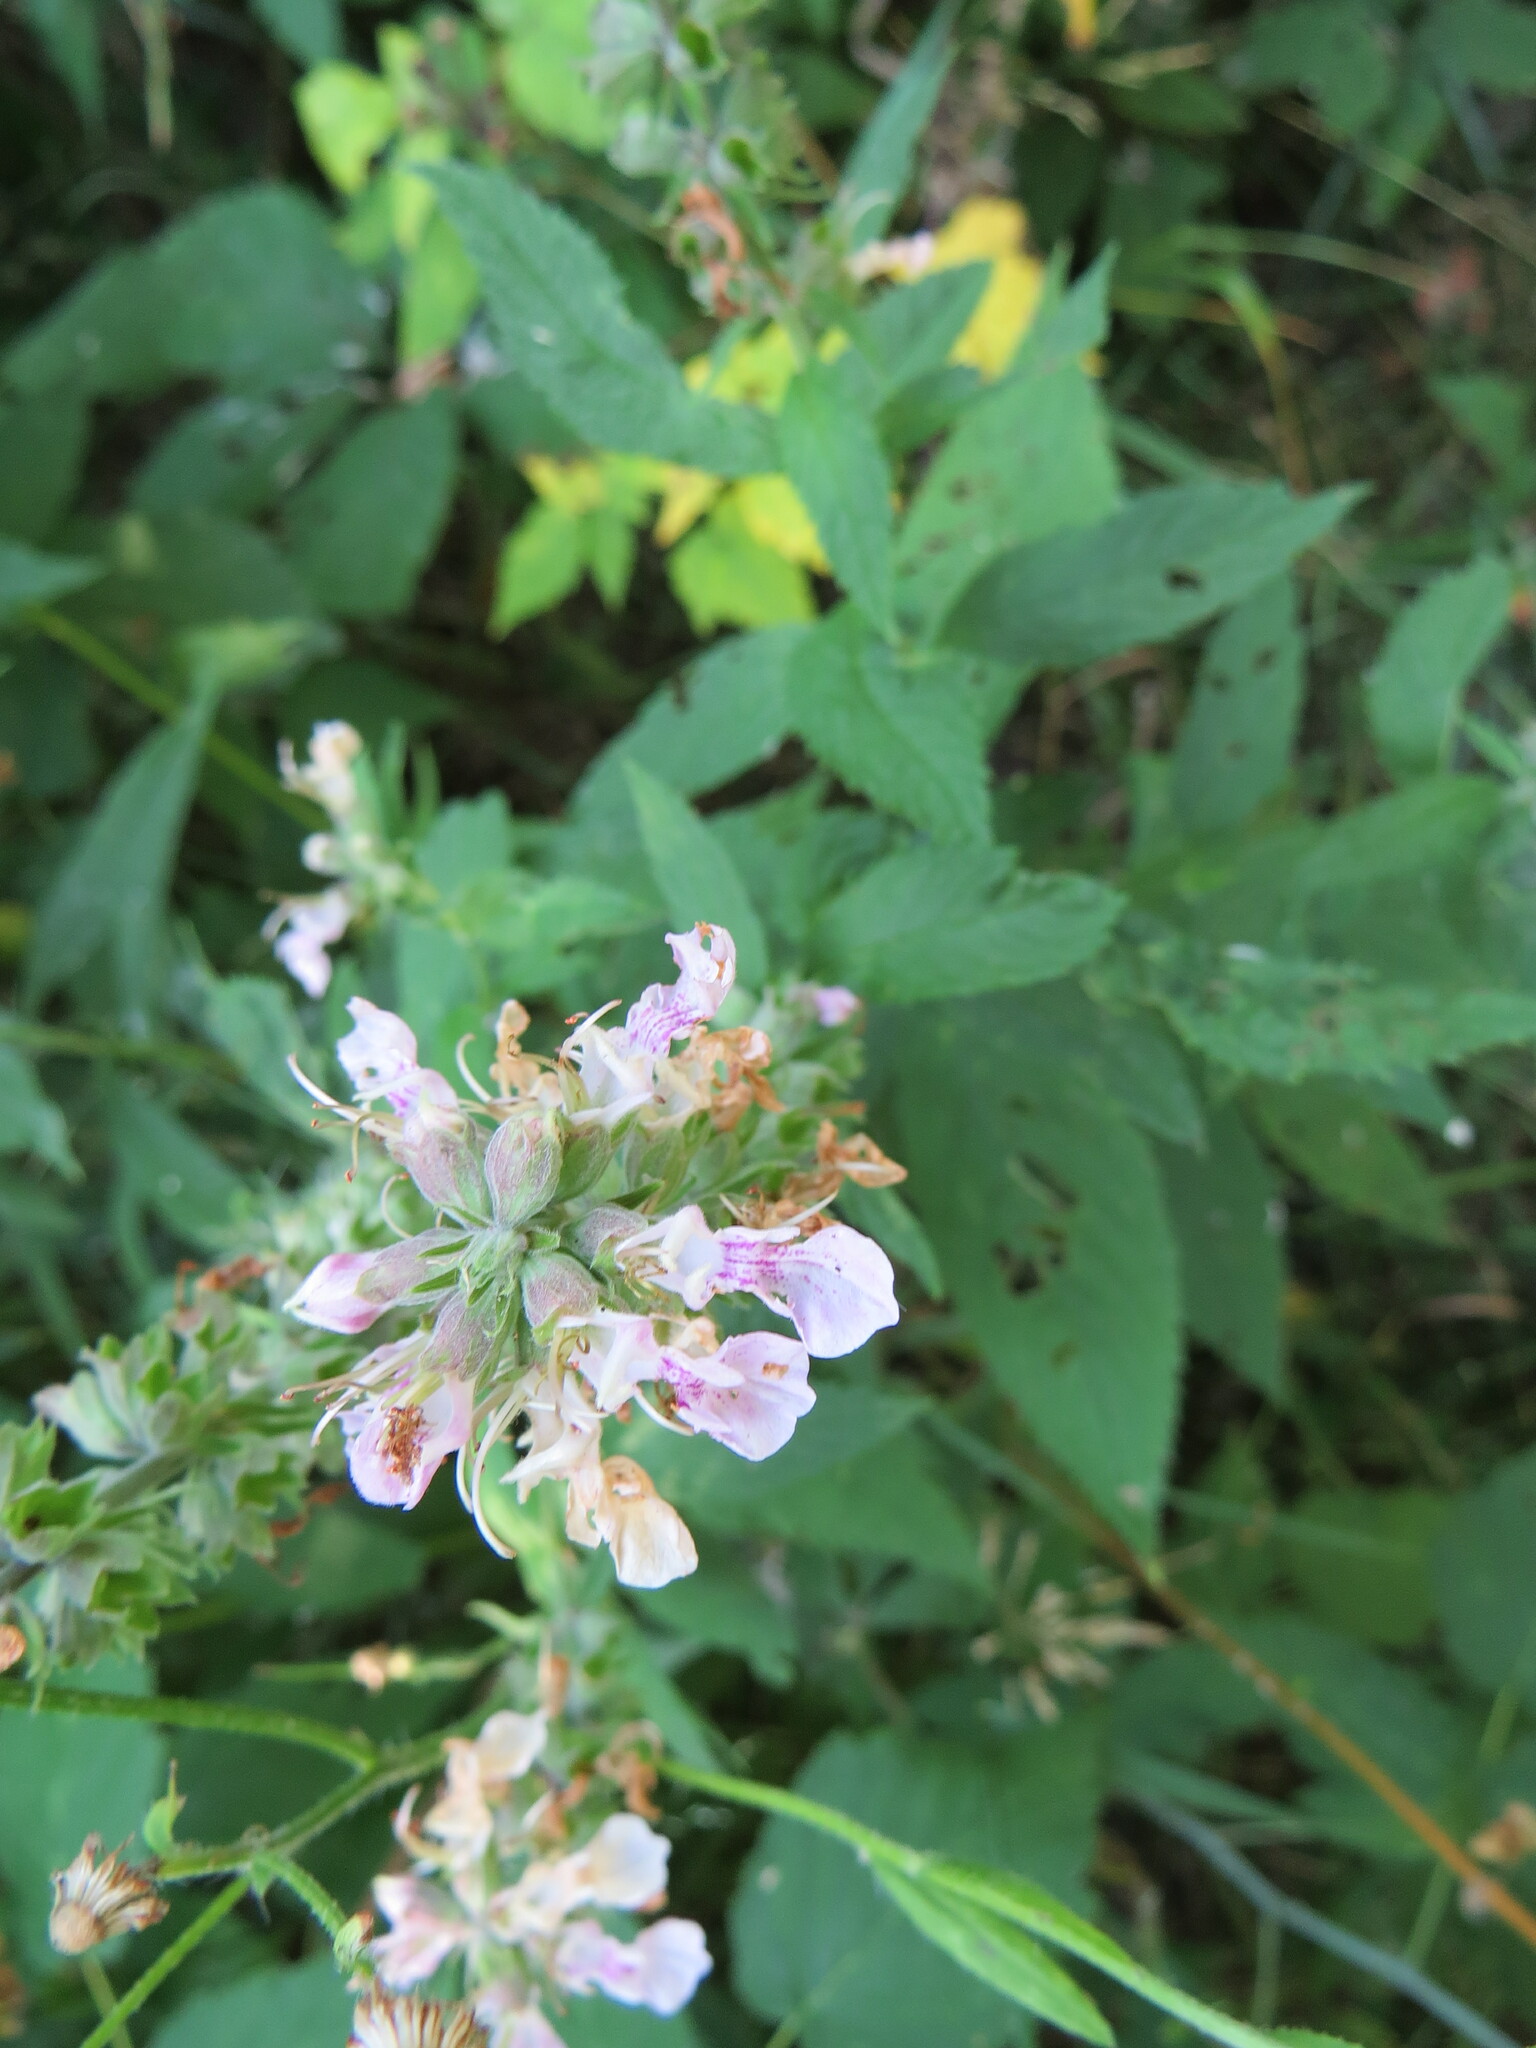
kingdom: Plantae
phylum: Tracheophyta
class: Magnoliopsida
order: Lamiales
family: Lamiaceae
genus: Teucrium
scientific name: Teucrium canadense
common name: American germander
